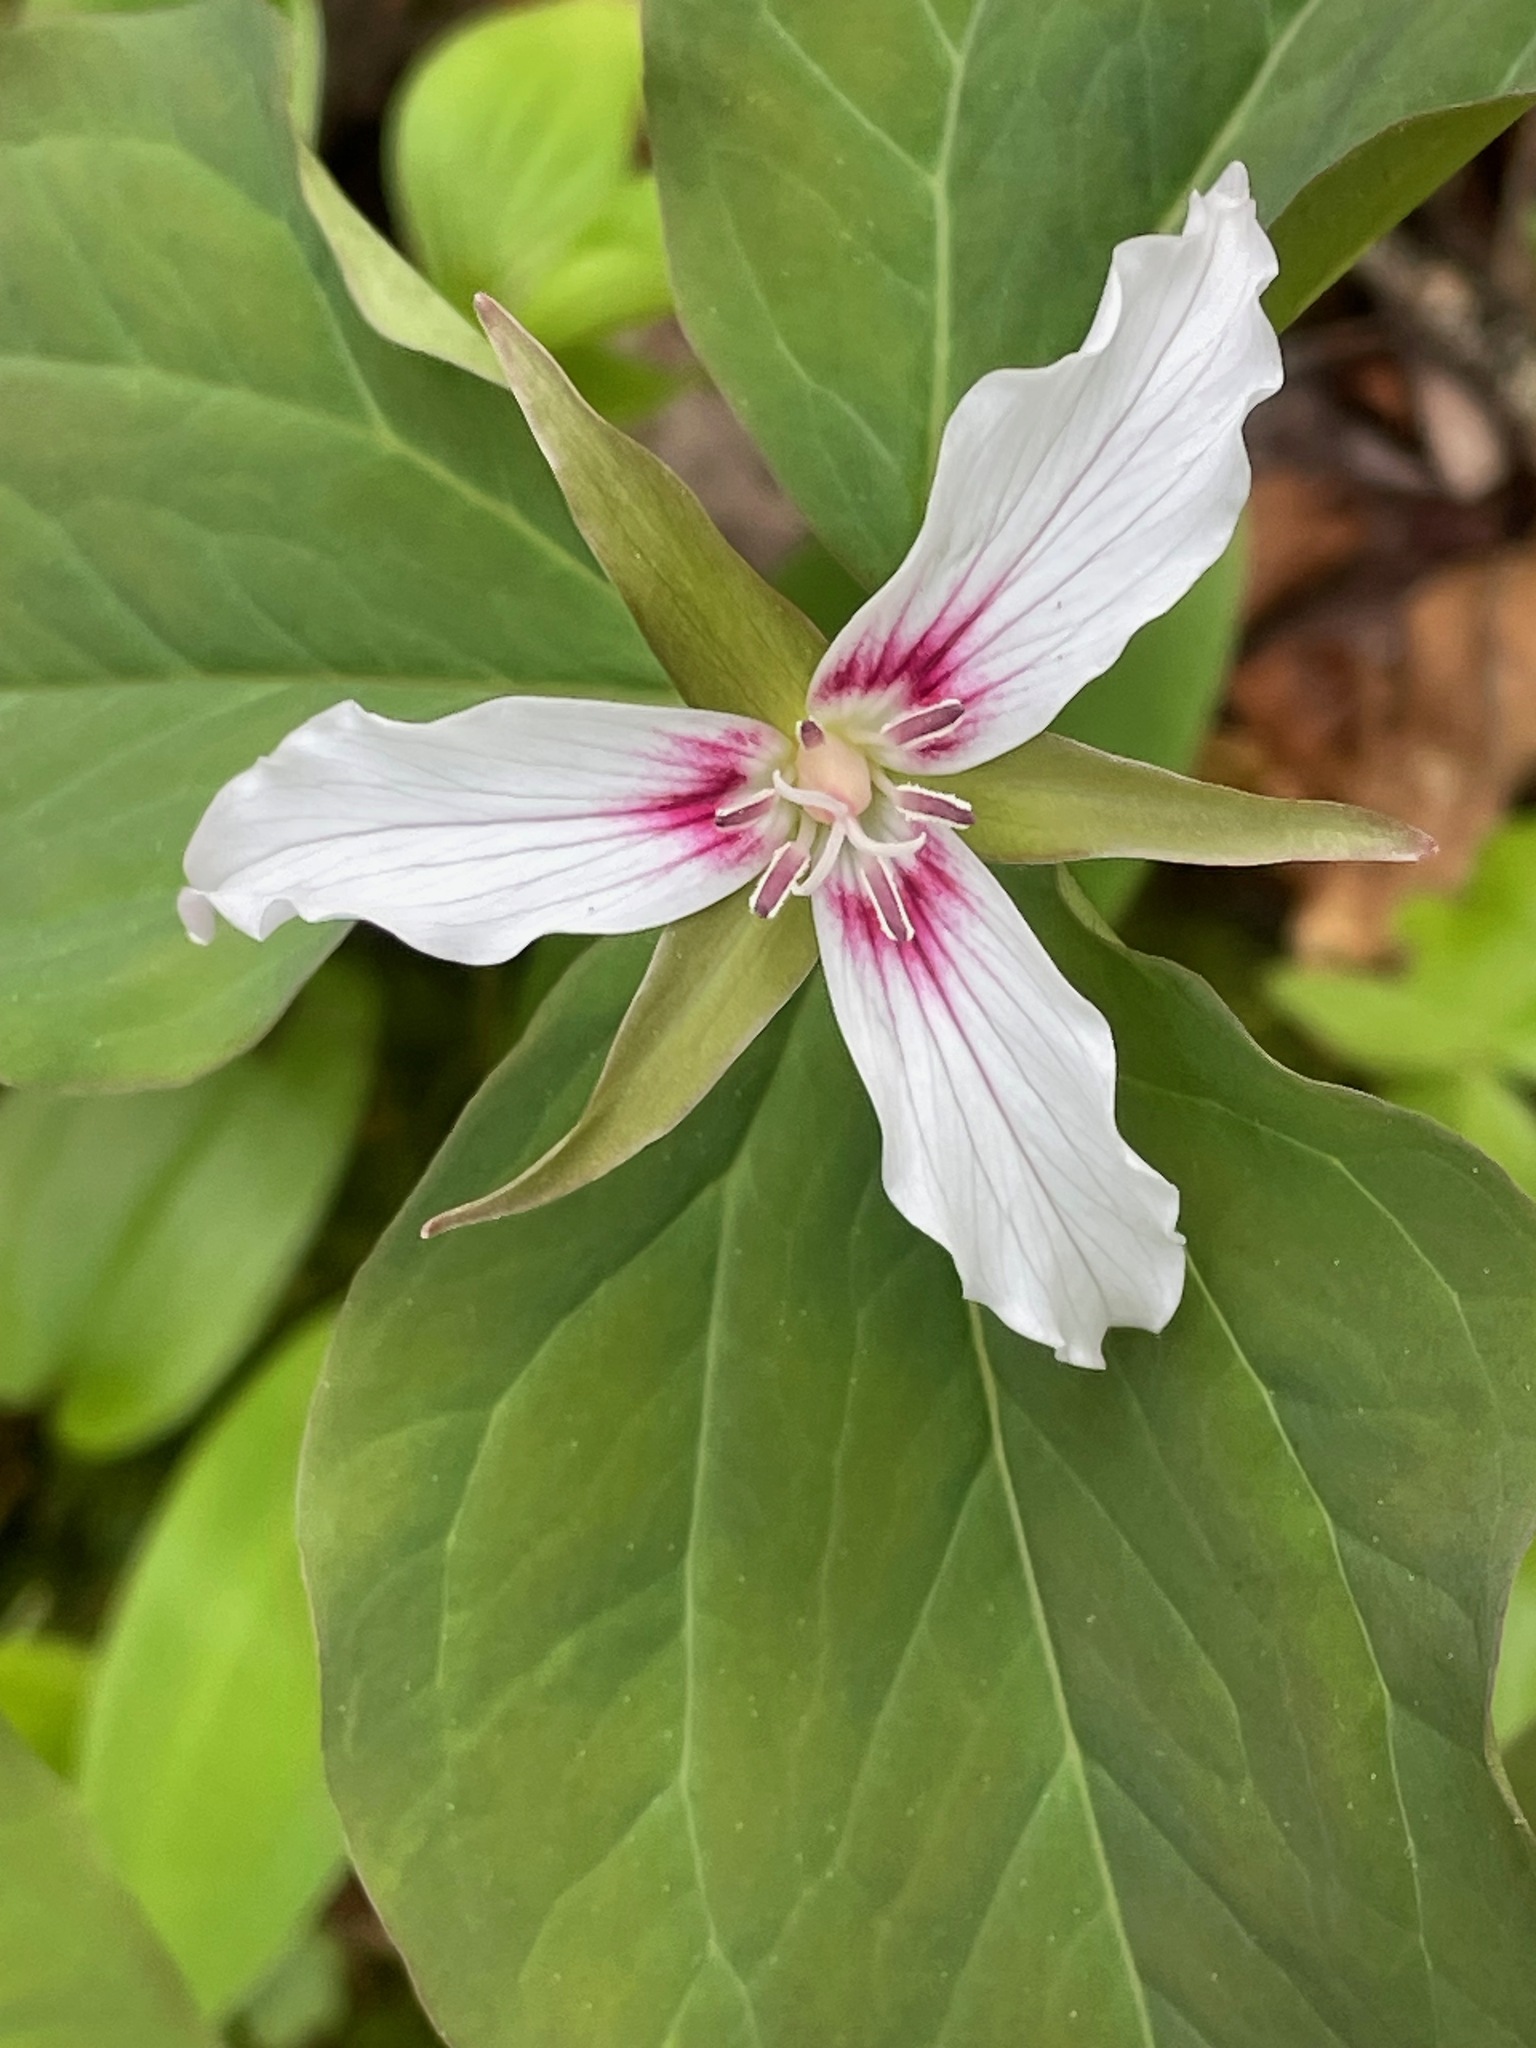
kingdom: Plantae
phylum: Tracheophyta
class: Liliopsida
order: Liliales
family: Melanthiaceae
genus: Trillium
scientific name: Trillium undulatum
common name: Paint trillium
